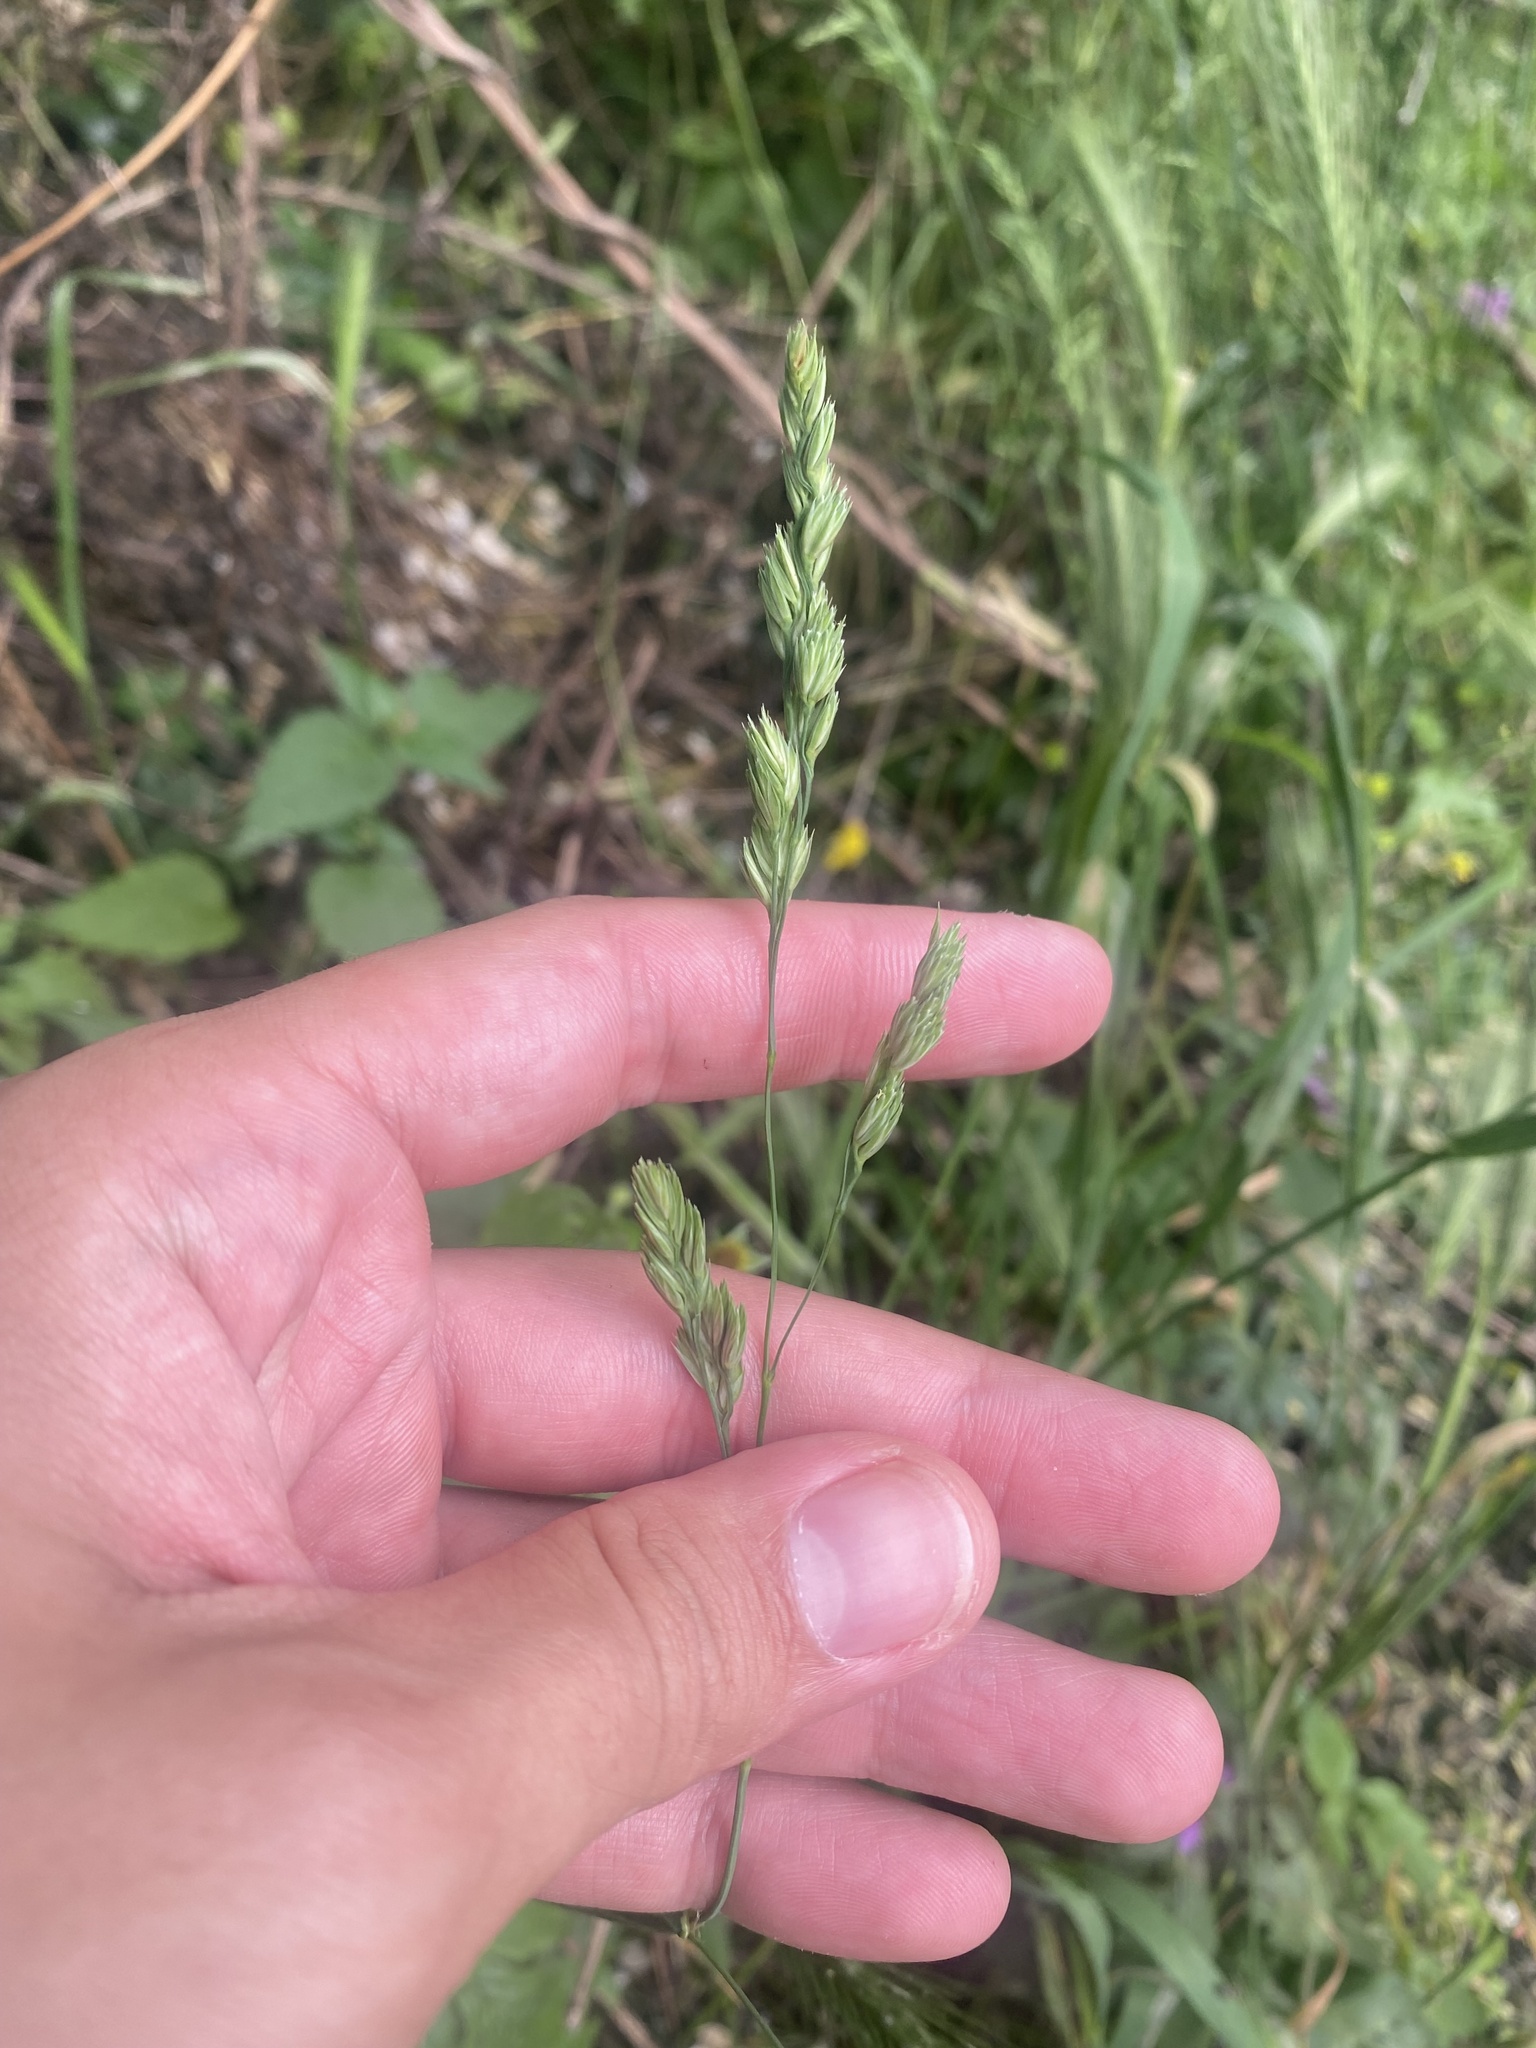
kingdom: Plantae
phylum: Tracheophyta
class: Liliopsida
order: Poales
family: Poaceae
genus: Dactylis
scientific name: Dactylis glomerata
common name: Orchardgrass
